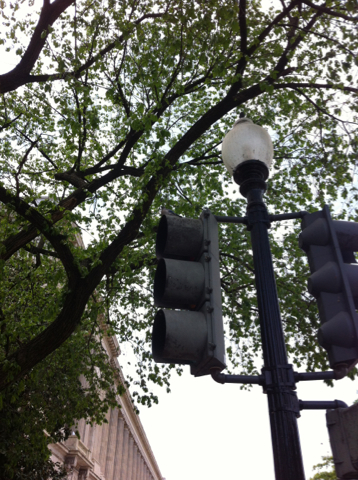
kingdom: Animalia
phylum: Chordata
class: Aves
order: Passeriformes
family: Corvidae
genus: Cyanocitta
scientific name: Cyanocitta cristata
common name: Blue jay
